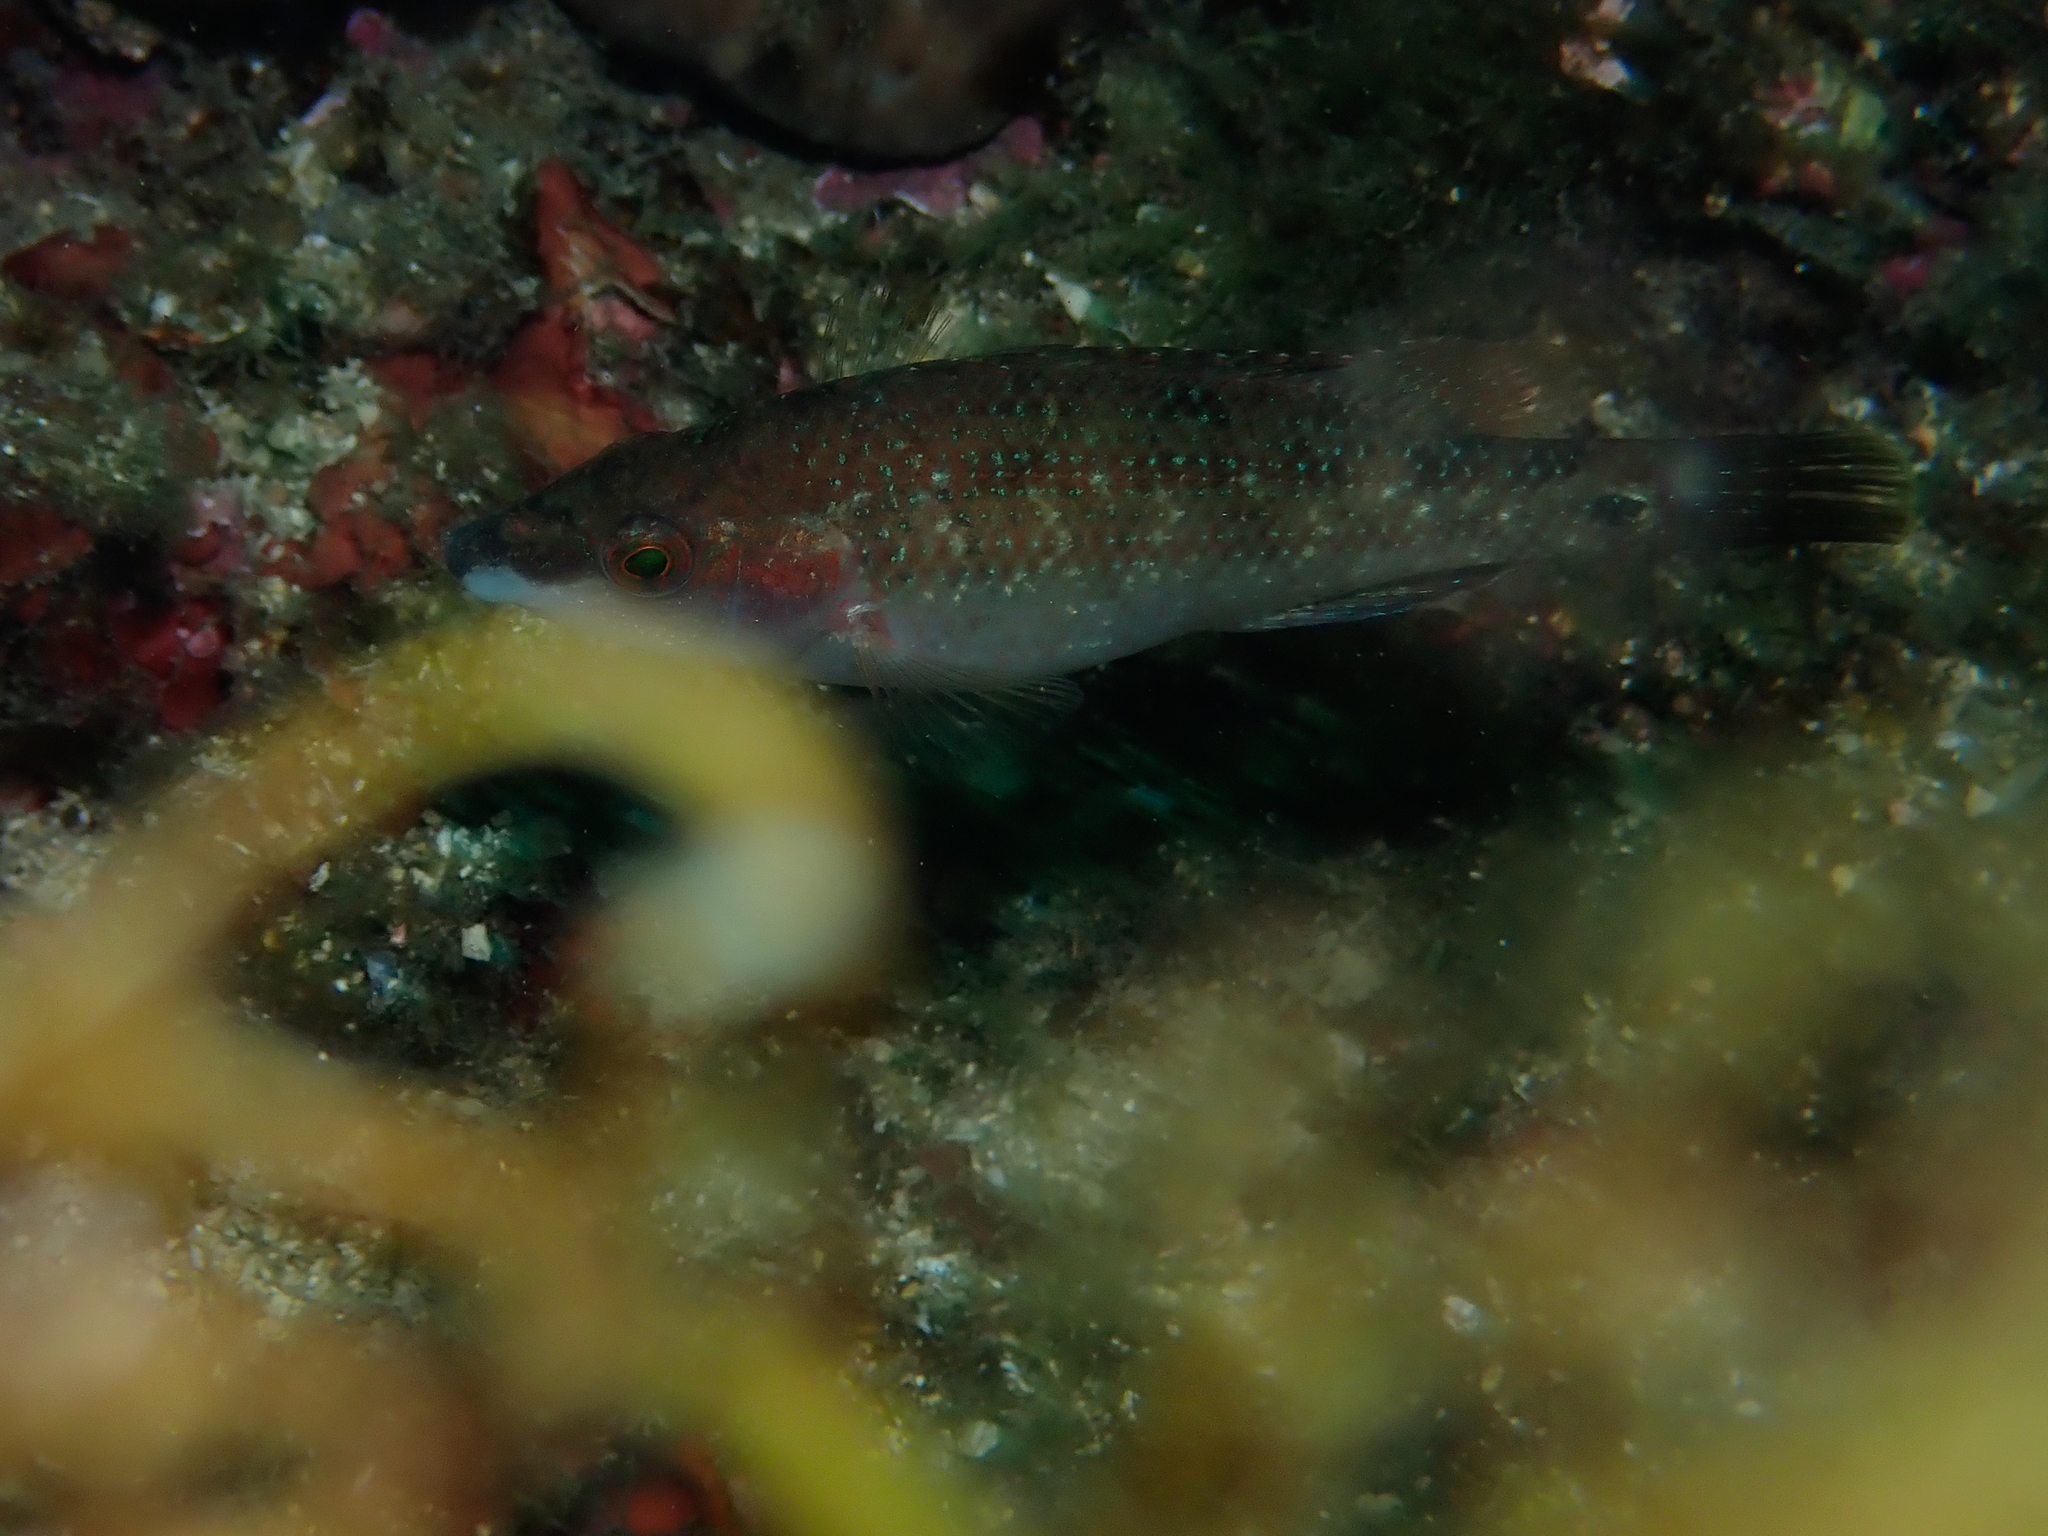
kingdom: Animalia
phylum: Chordata
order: Perciformes
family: Labridae
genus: Symphodus
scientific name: Symphodus tinca
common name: Peacock wrasse
